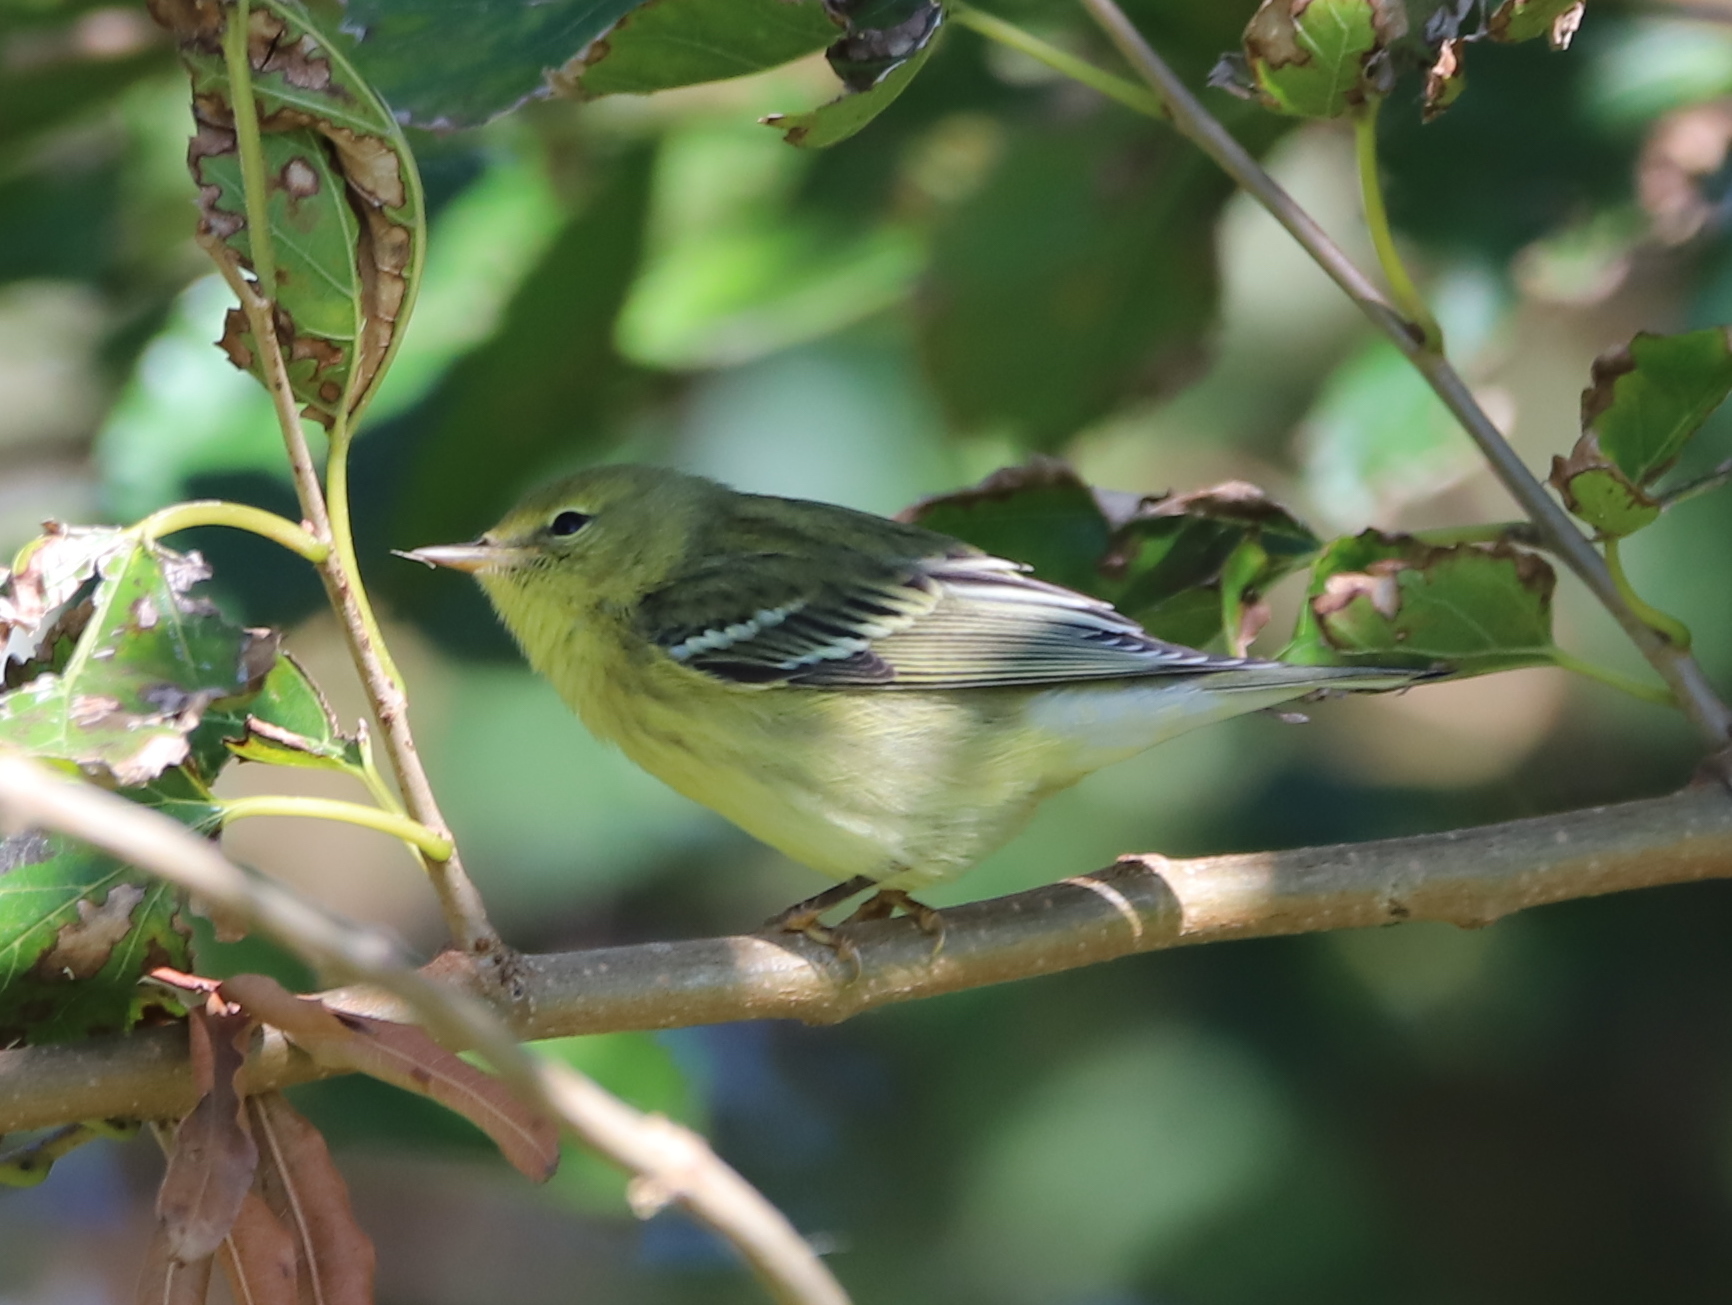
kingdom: Animalia
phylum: Chordata
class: Aves
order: Passeriformes
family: Parulidae
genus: Setophaga
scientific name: Setophaga striata
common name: Blackpoll warbler
